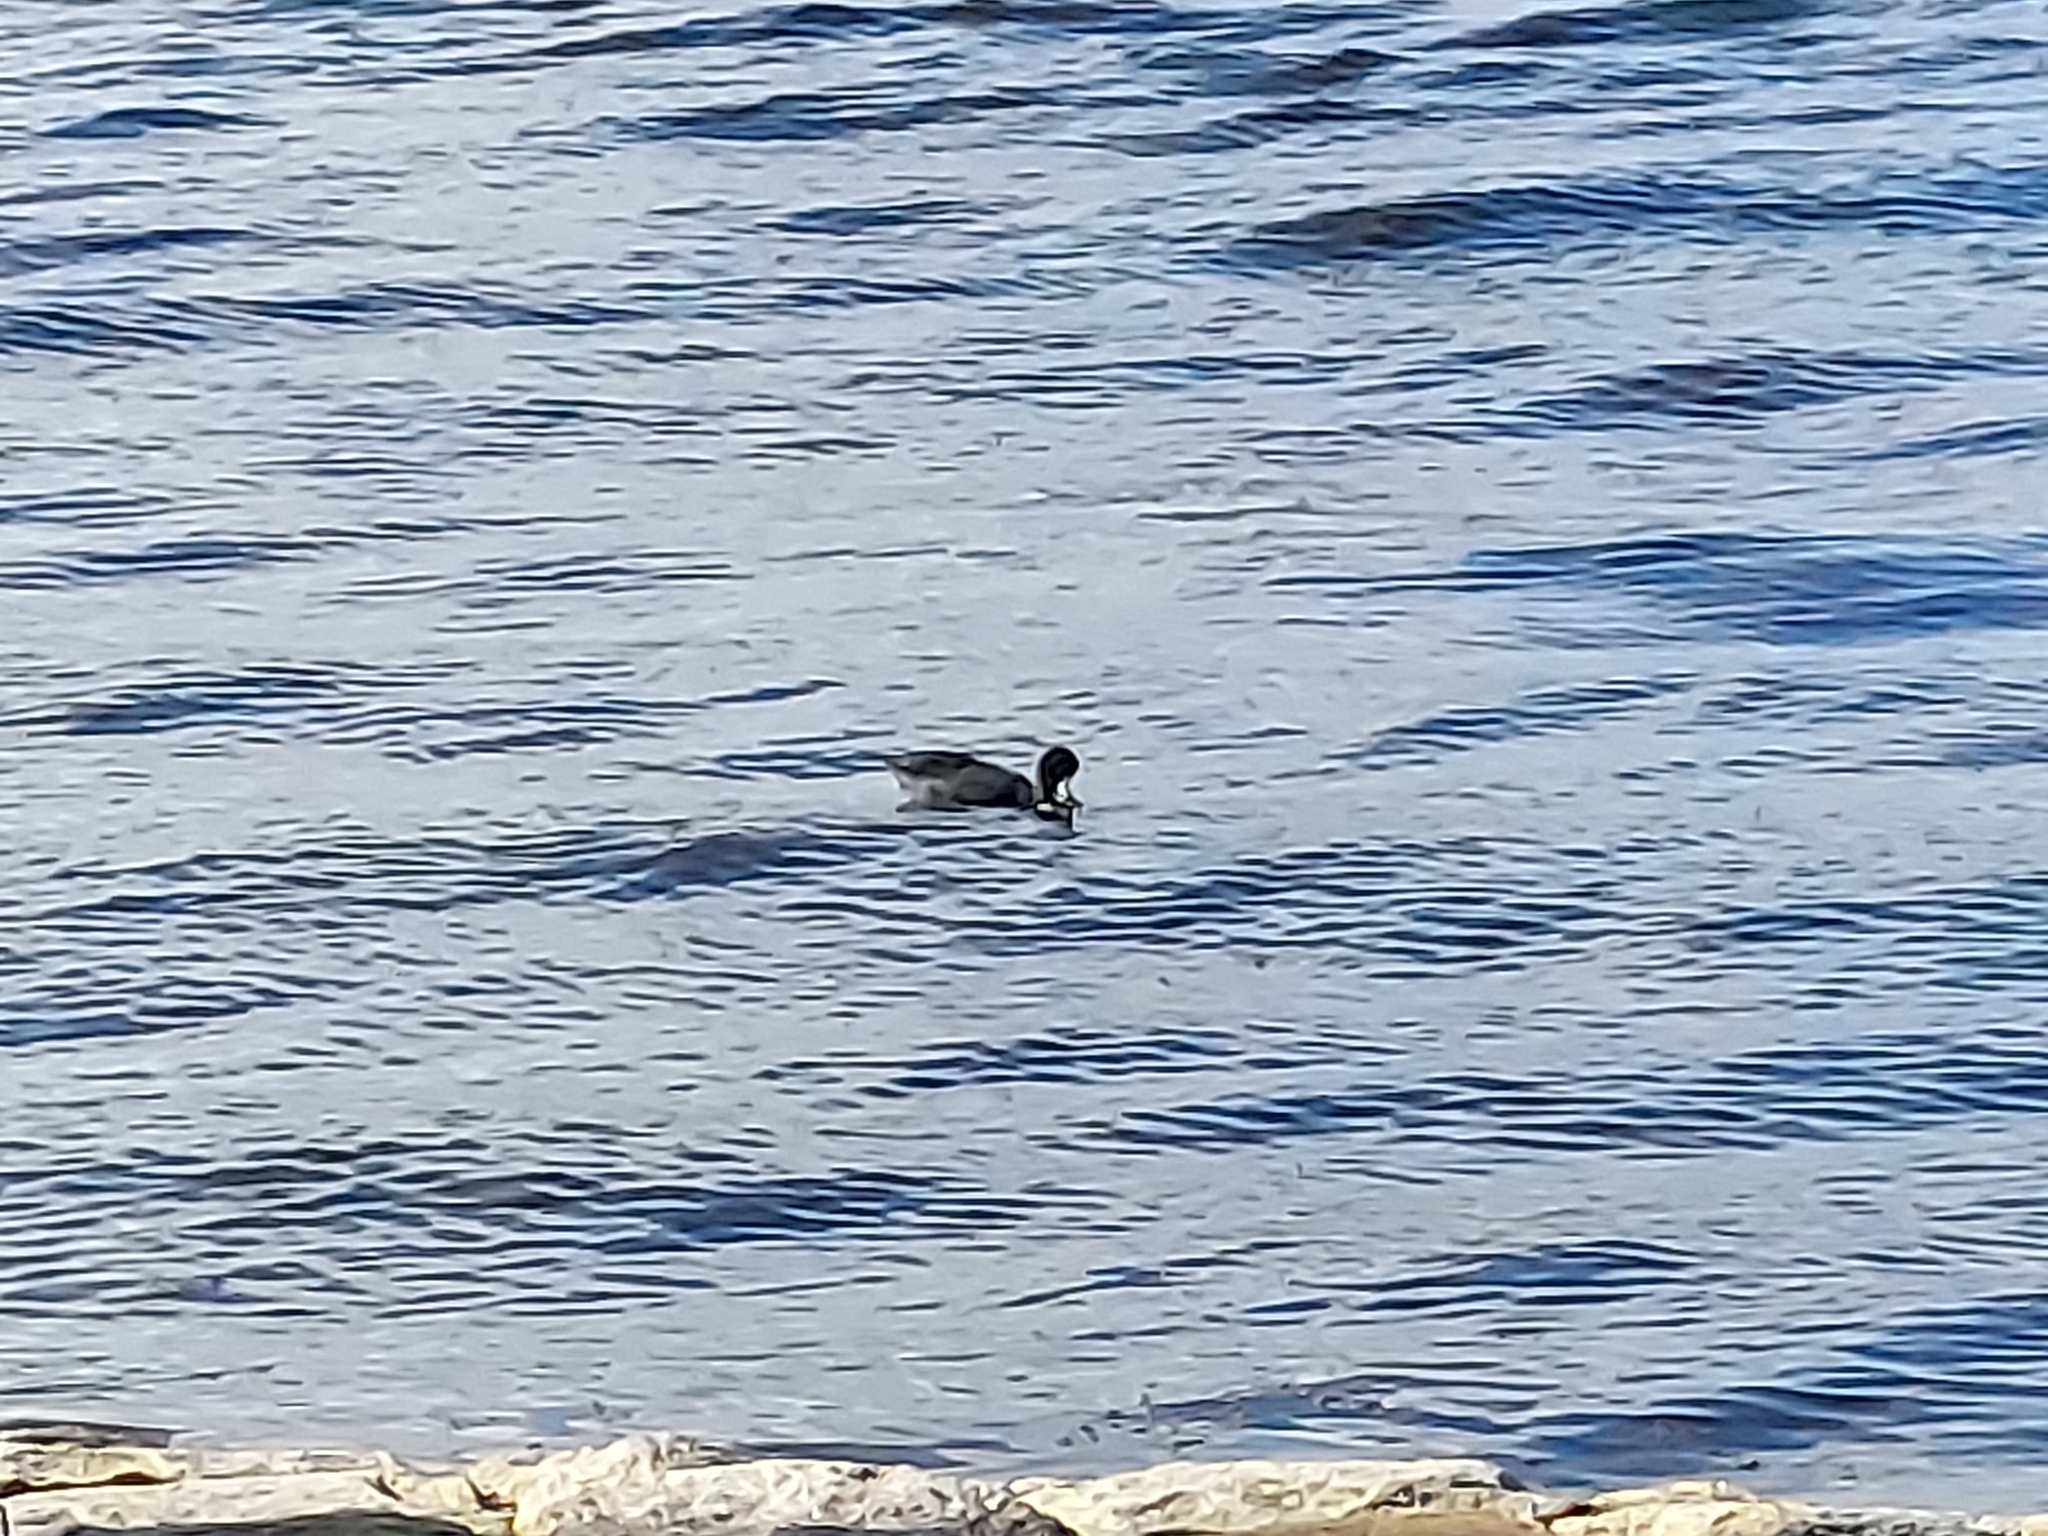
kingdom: Animalia
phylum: Chordata
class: Aves
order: Gruiformes
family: Rallidae
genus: Fulica
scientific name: Fulica atra
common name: Eurasian coot
